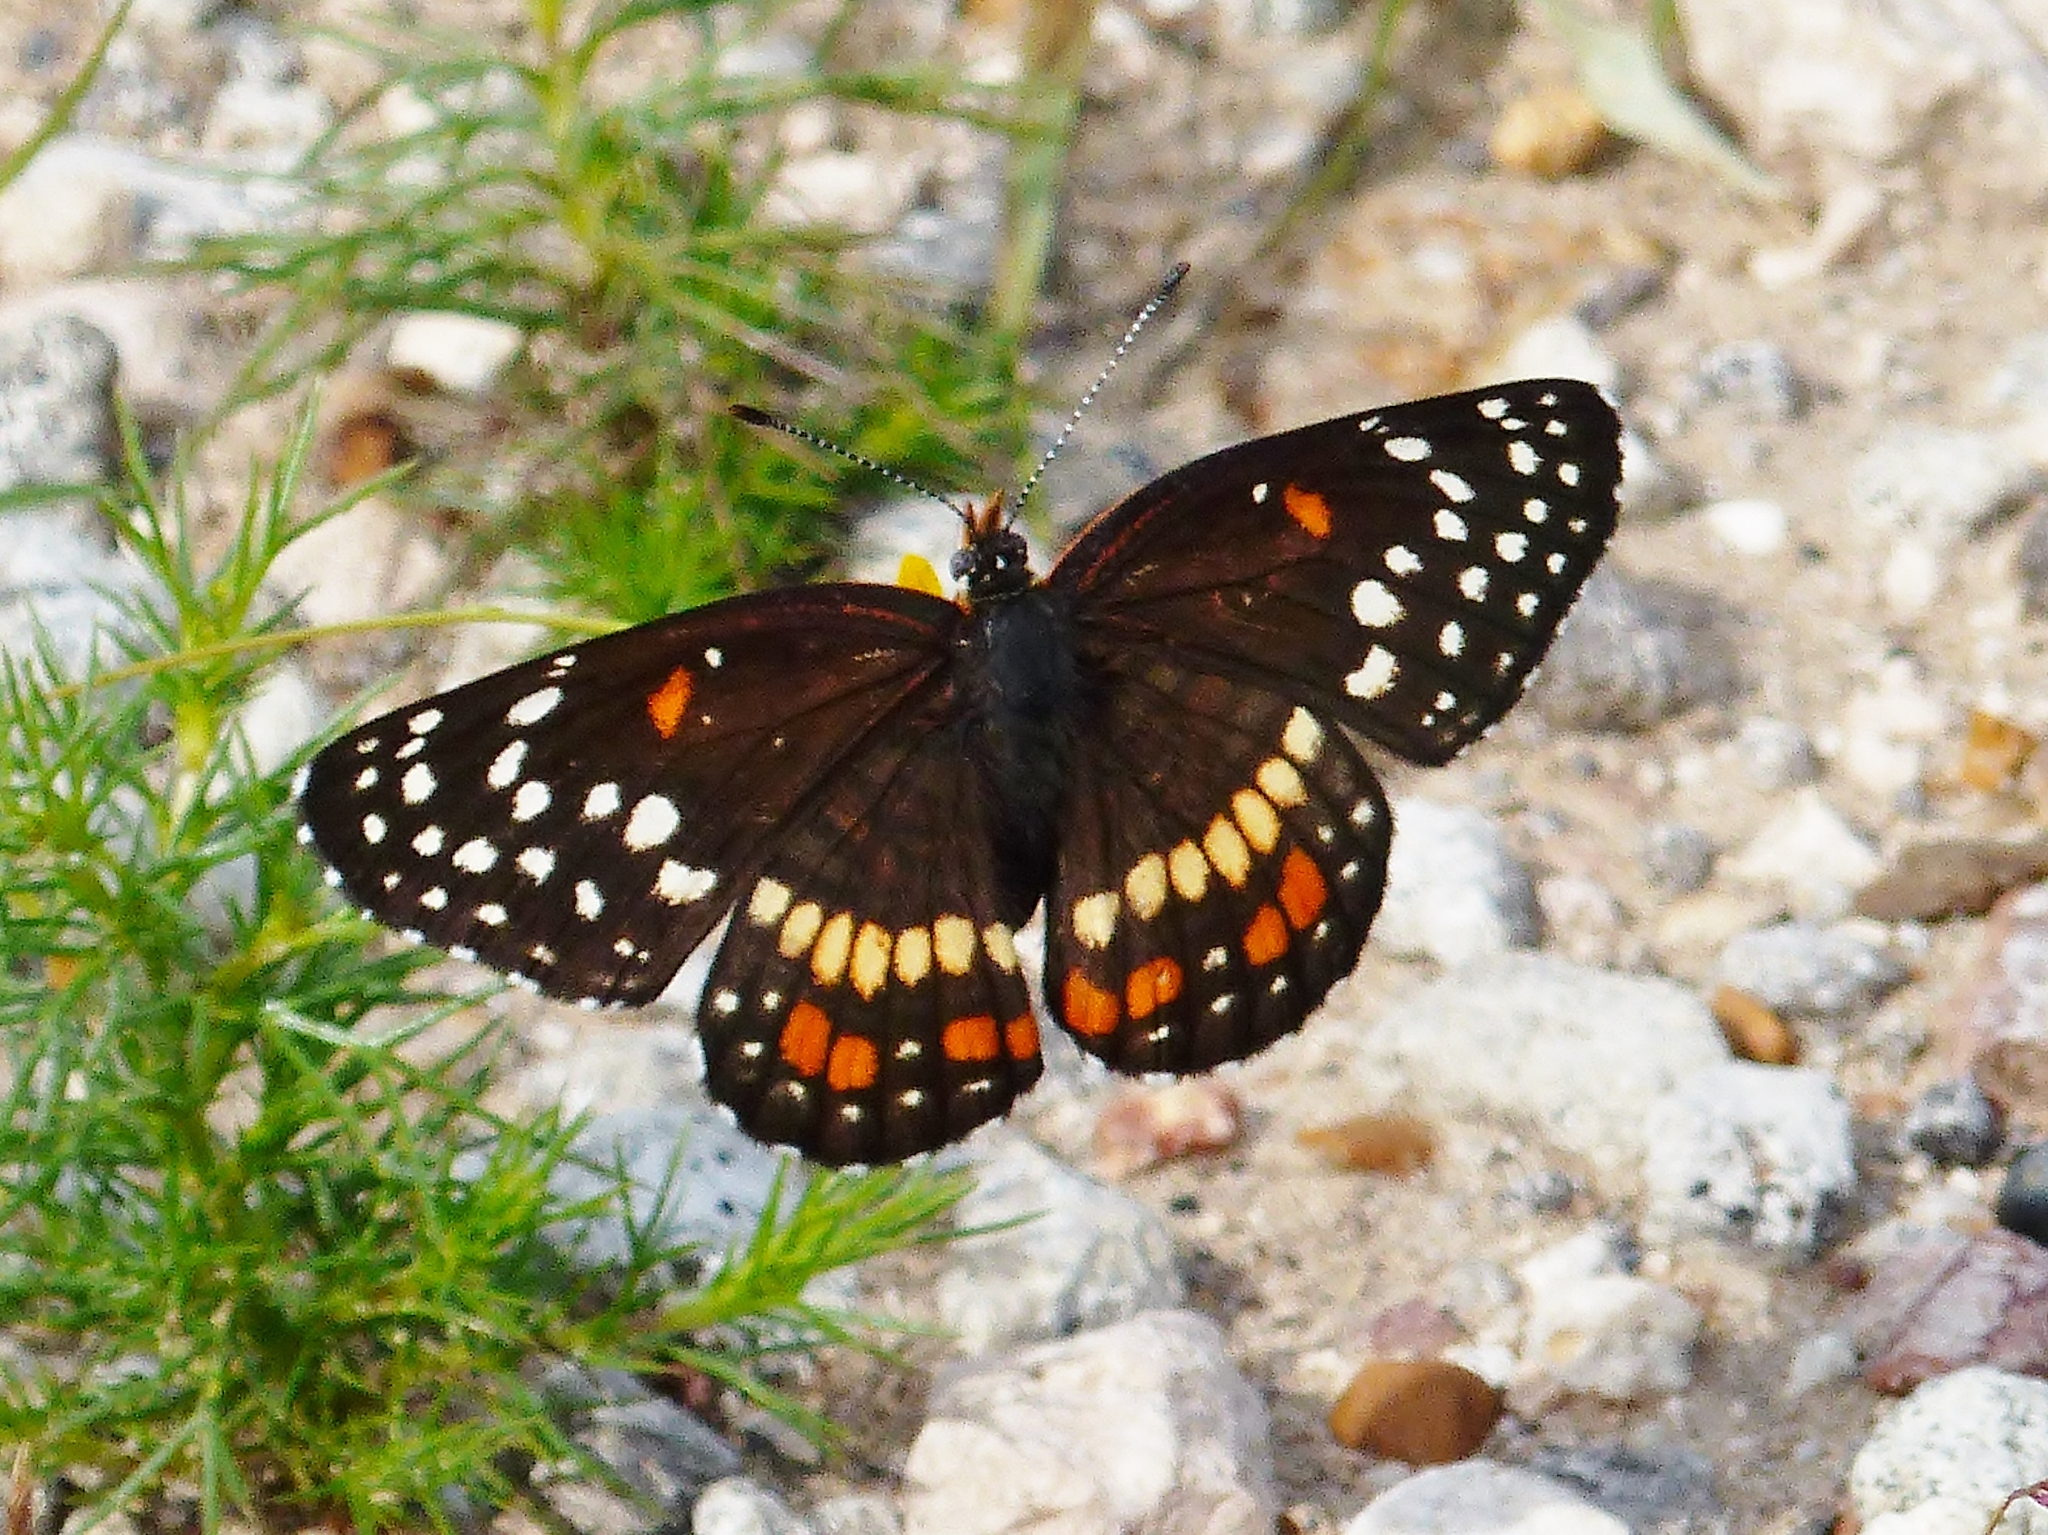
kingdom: Animalia
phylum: Arthropoda
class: Insecta
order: Lepidoptera
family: Nymphalidae
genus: Chlosyne
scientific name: Chlosyne endeis
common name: Banded checkerspot
